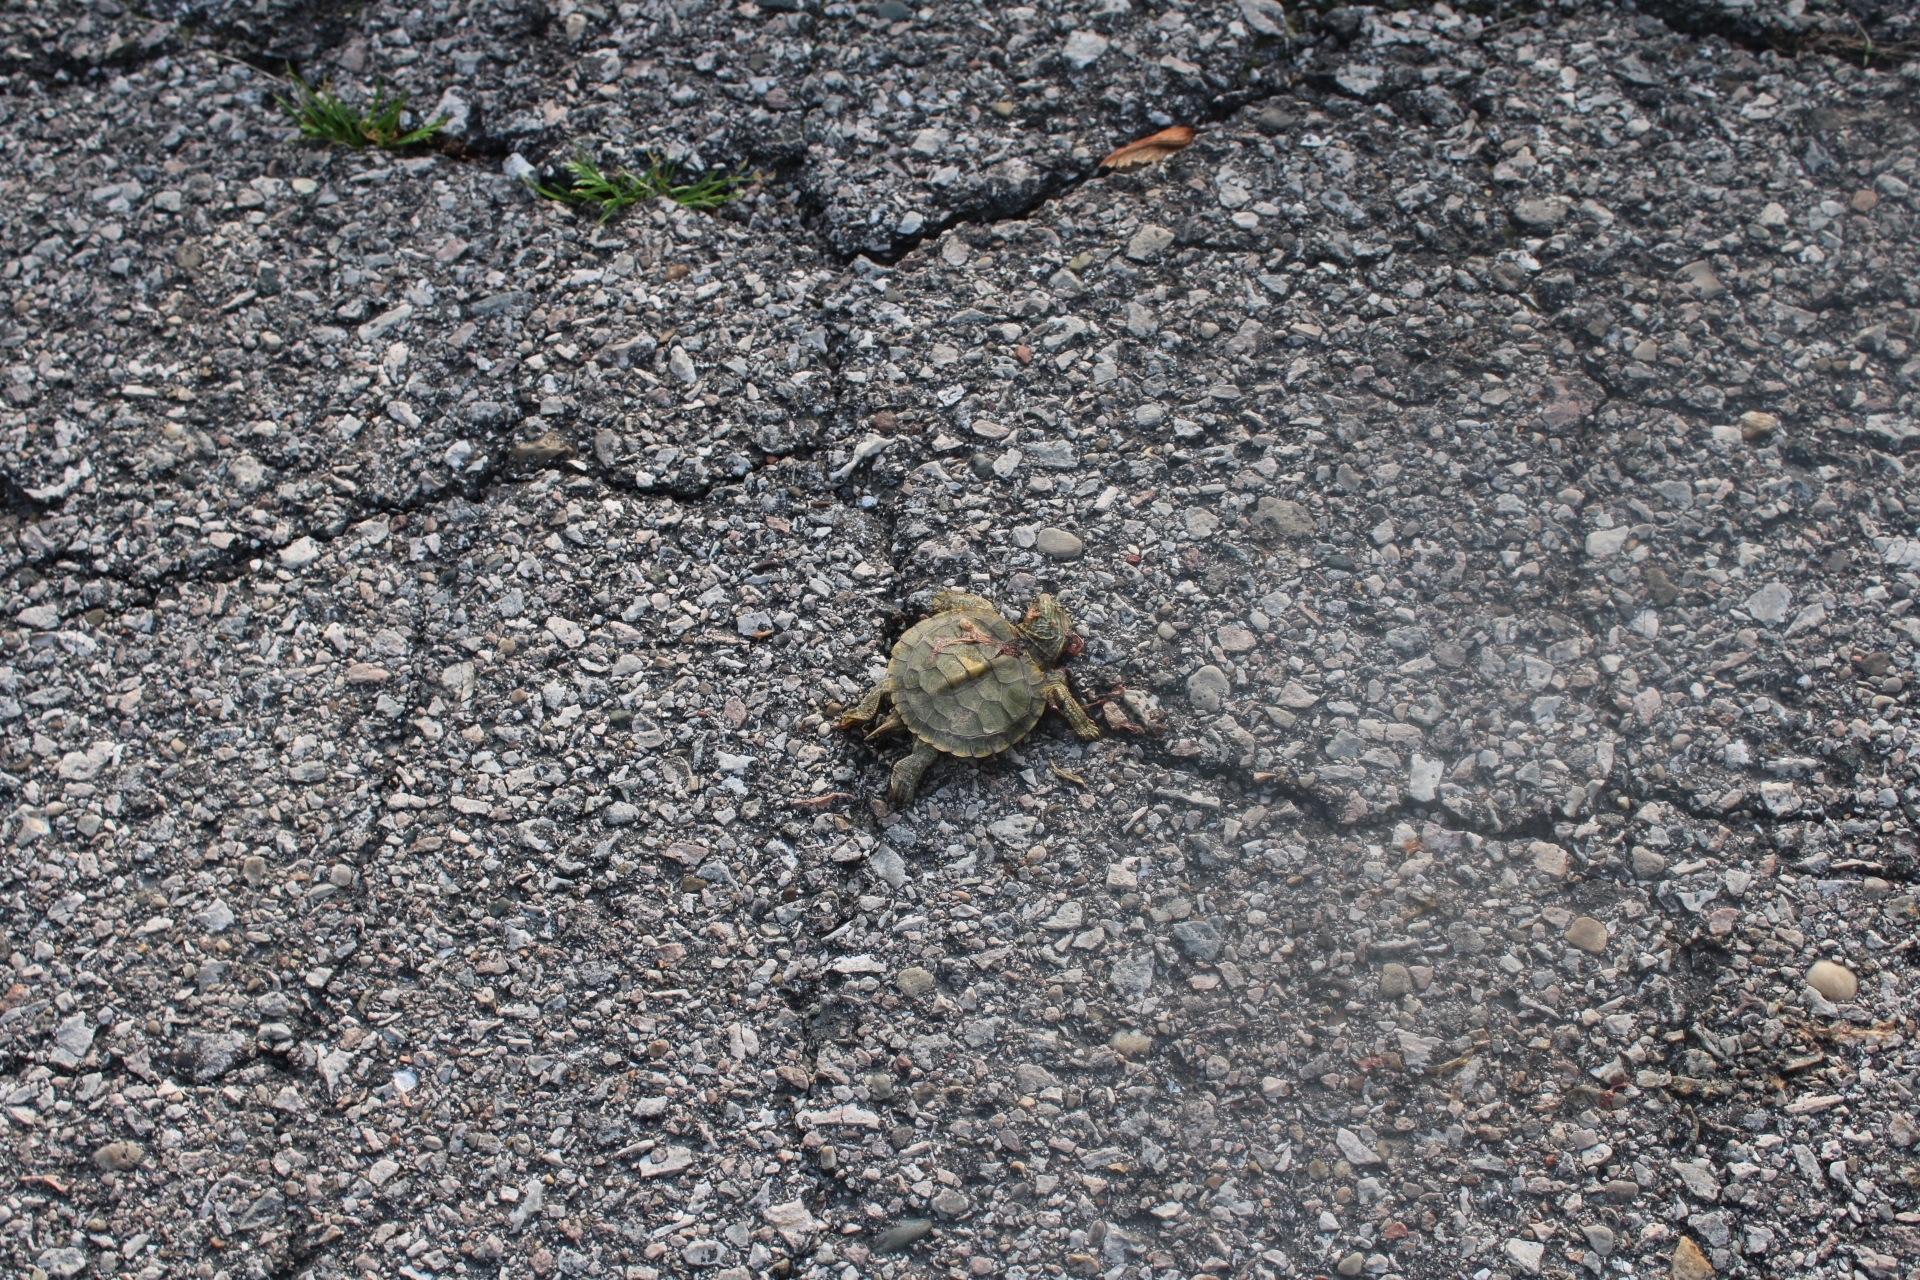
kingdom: Animalia
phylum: Chordata
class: Testudines
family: Emydidae
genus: Trachemys
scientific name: Trachemys scripta
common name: Slider
